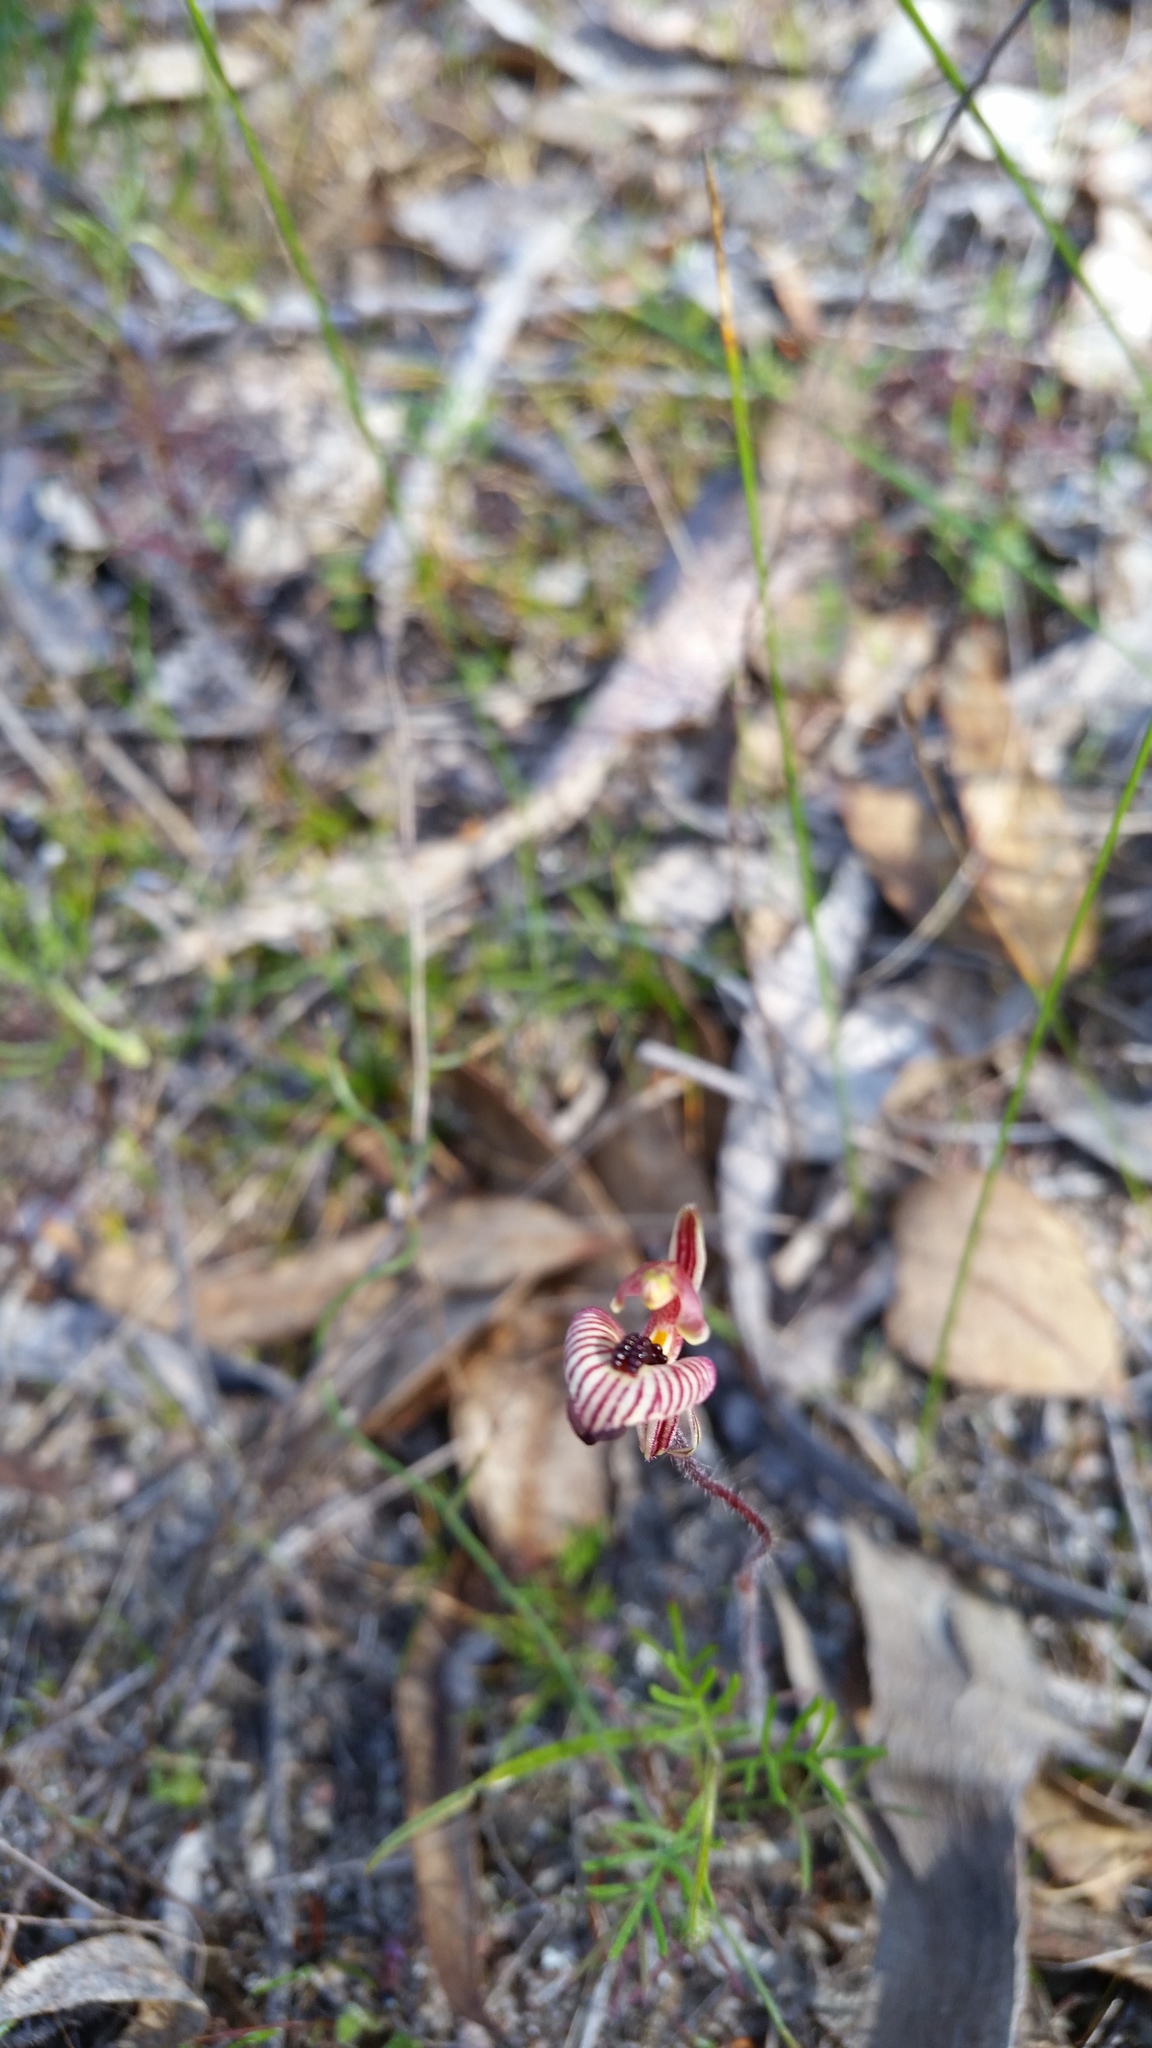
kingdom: Plantae
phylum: Tracheophyta
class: Liliopsida
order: Asparagales
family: Orchidaceae
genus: Caladenia
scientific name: Caladenia cairnsiana
